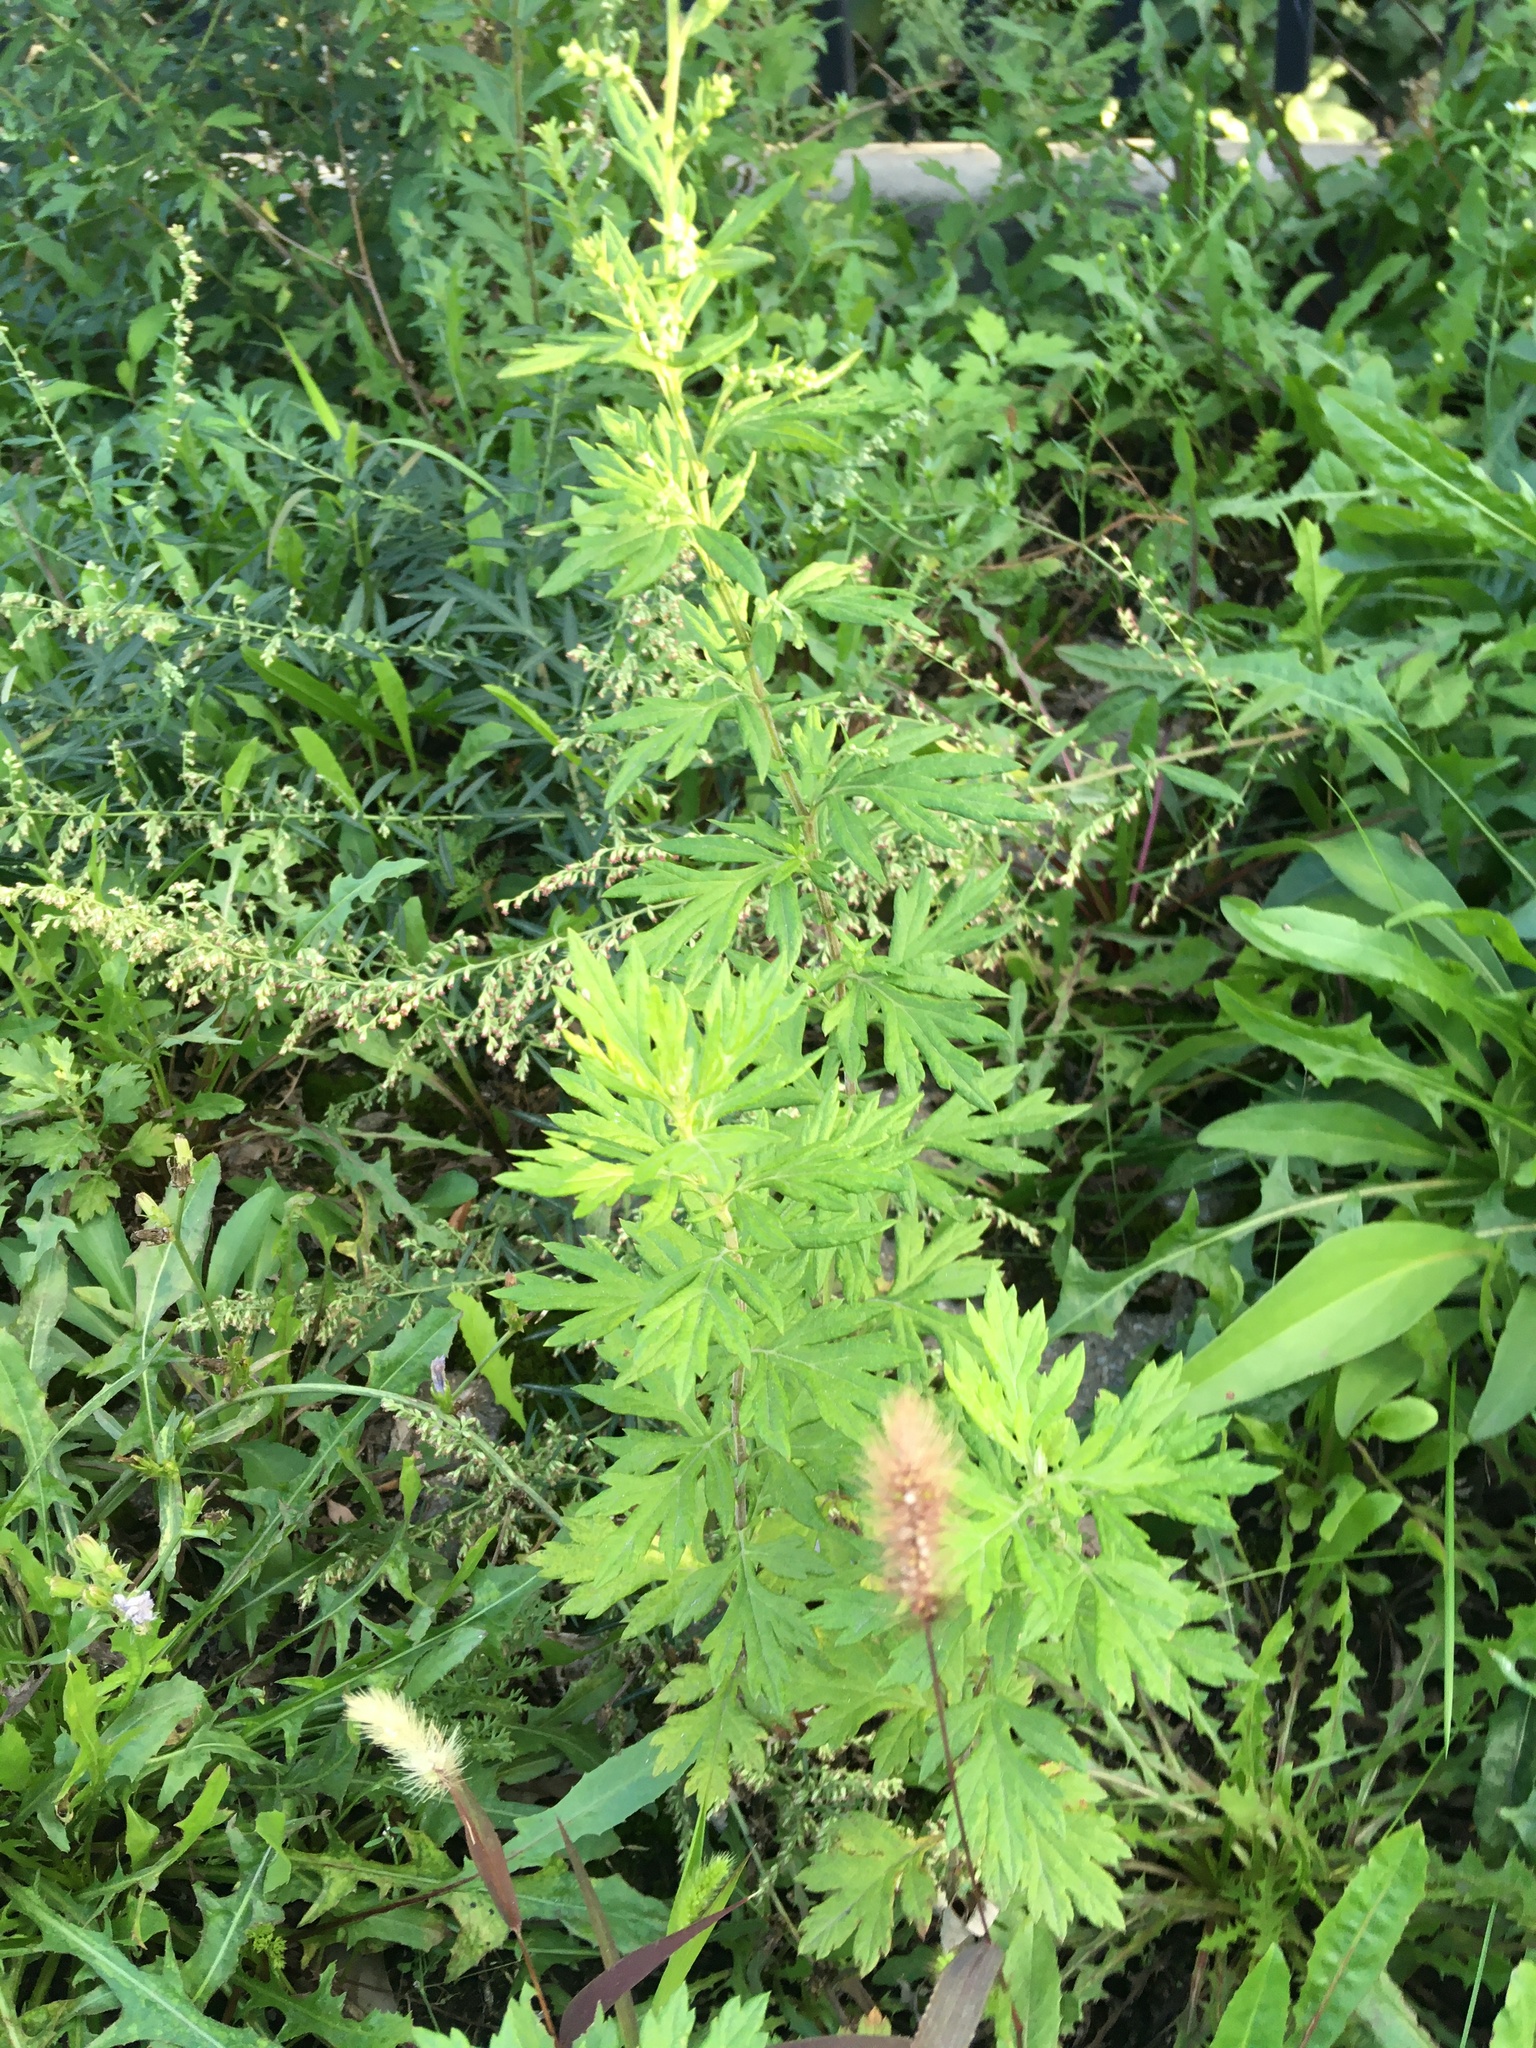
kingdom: Plantae
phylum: Tracheophyta
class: Magnoliopsida
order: Asterales
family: Asteraceae
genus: Artemisia
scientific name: Artemisia vulgaris
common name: Mugwort
